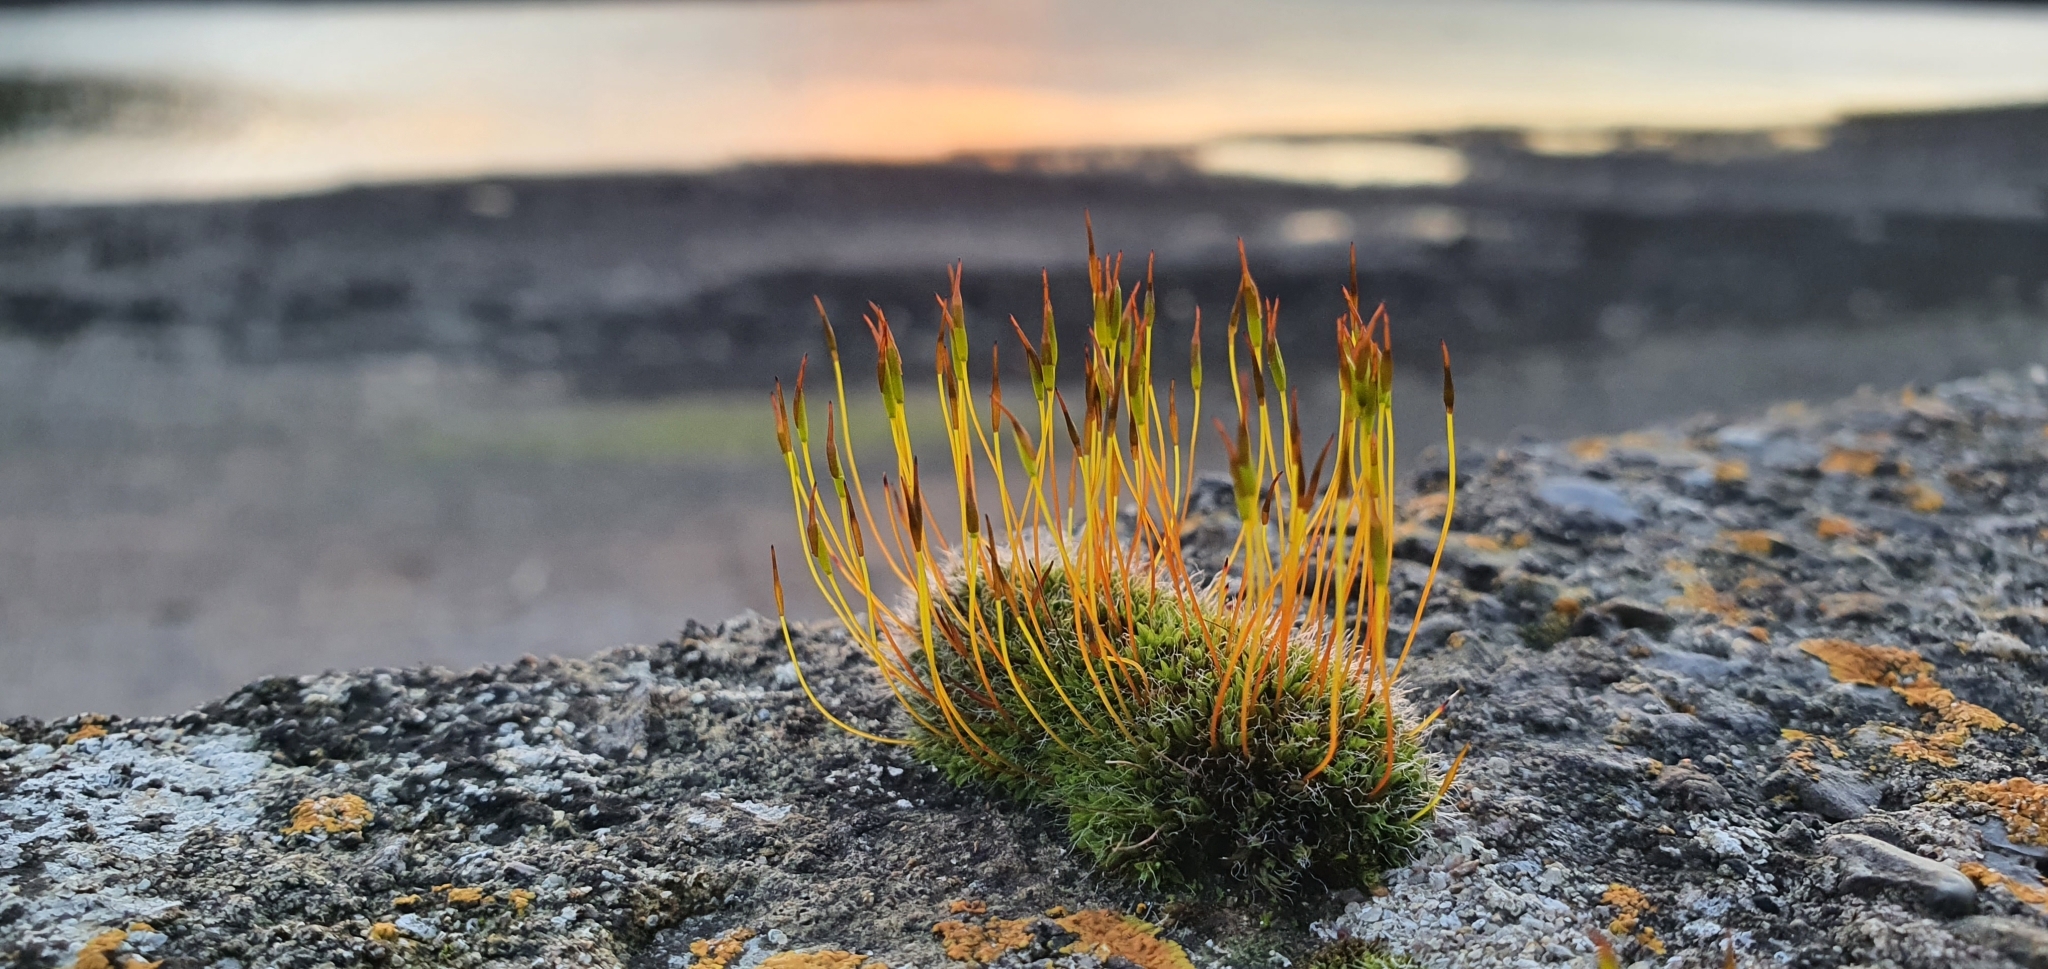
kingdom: Plantae
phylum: Bryophyta
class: Bryopsida
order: Pottiales
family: Pottiaceae
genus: Tortula
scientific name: Tortula muralis
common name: Wall screw-moss
